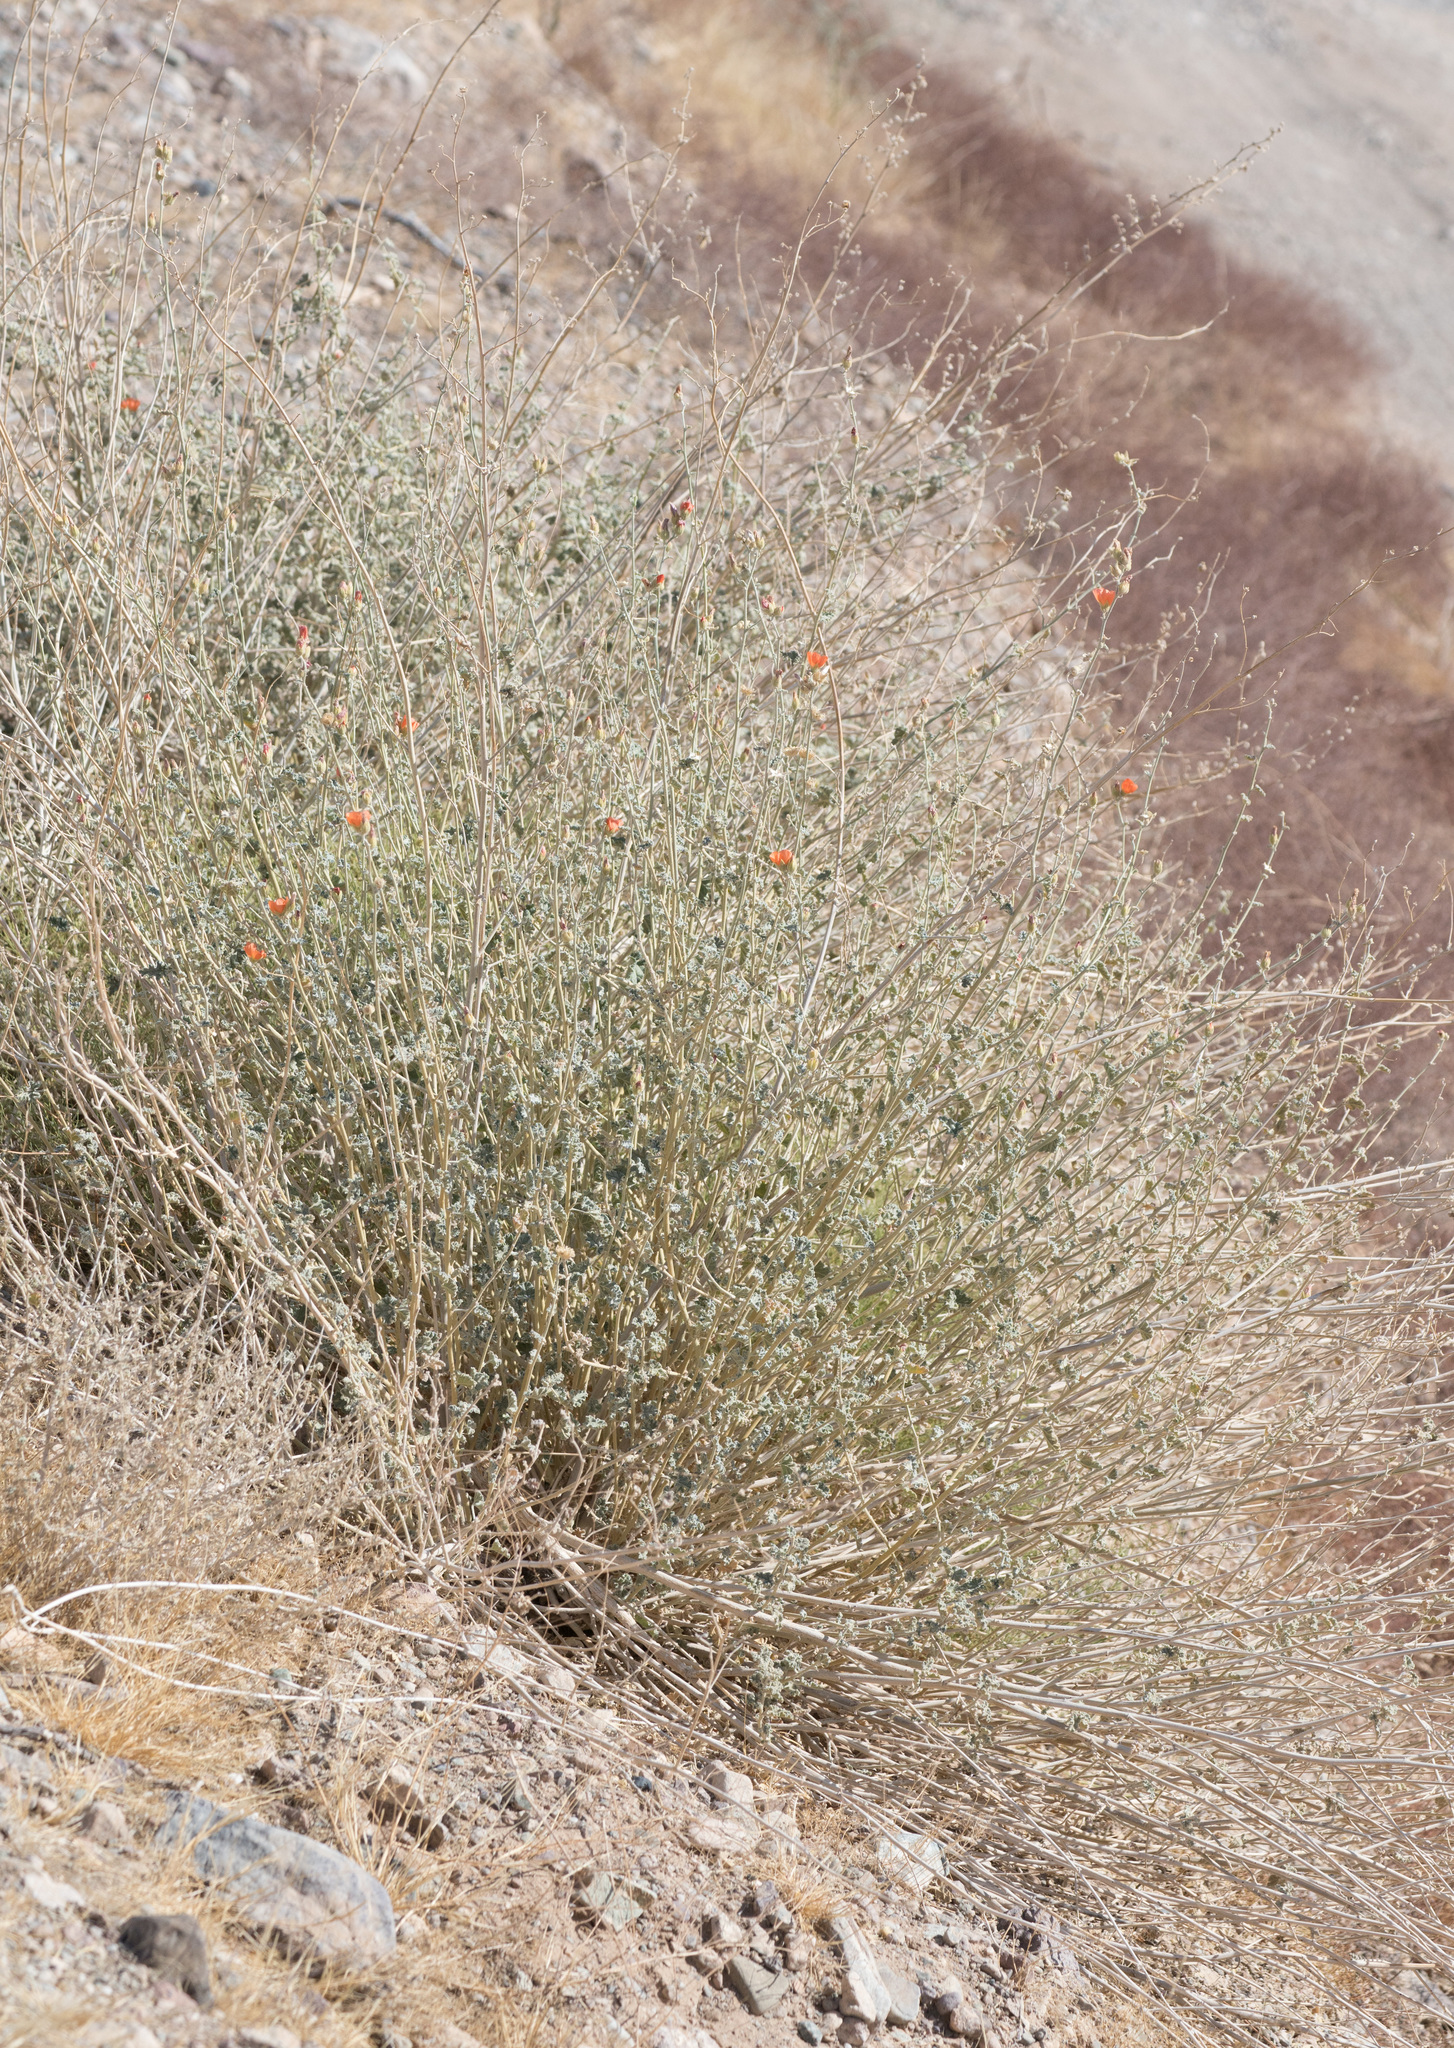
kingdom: Plantae
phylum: Tracheophyta
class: Magnoliopsida
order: Malvales
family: Malvaceae
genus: Sphaeralcea
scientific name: Sphaeralcea ambigua
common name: Apricot globe-mallow
